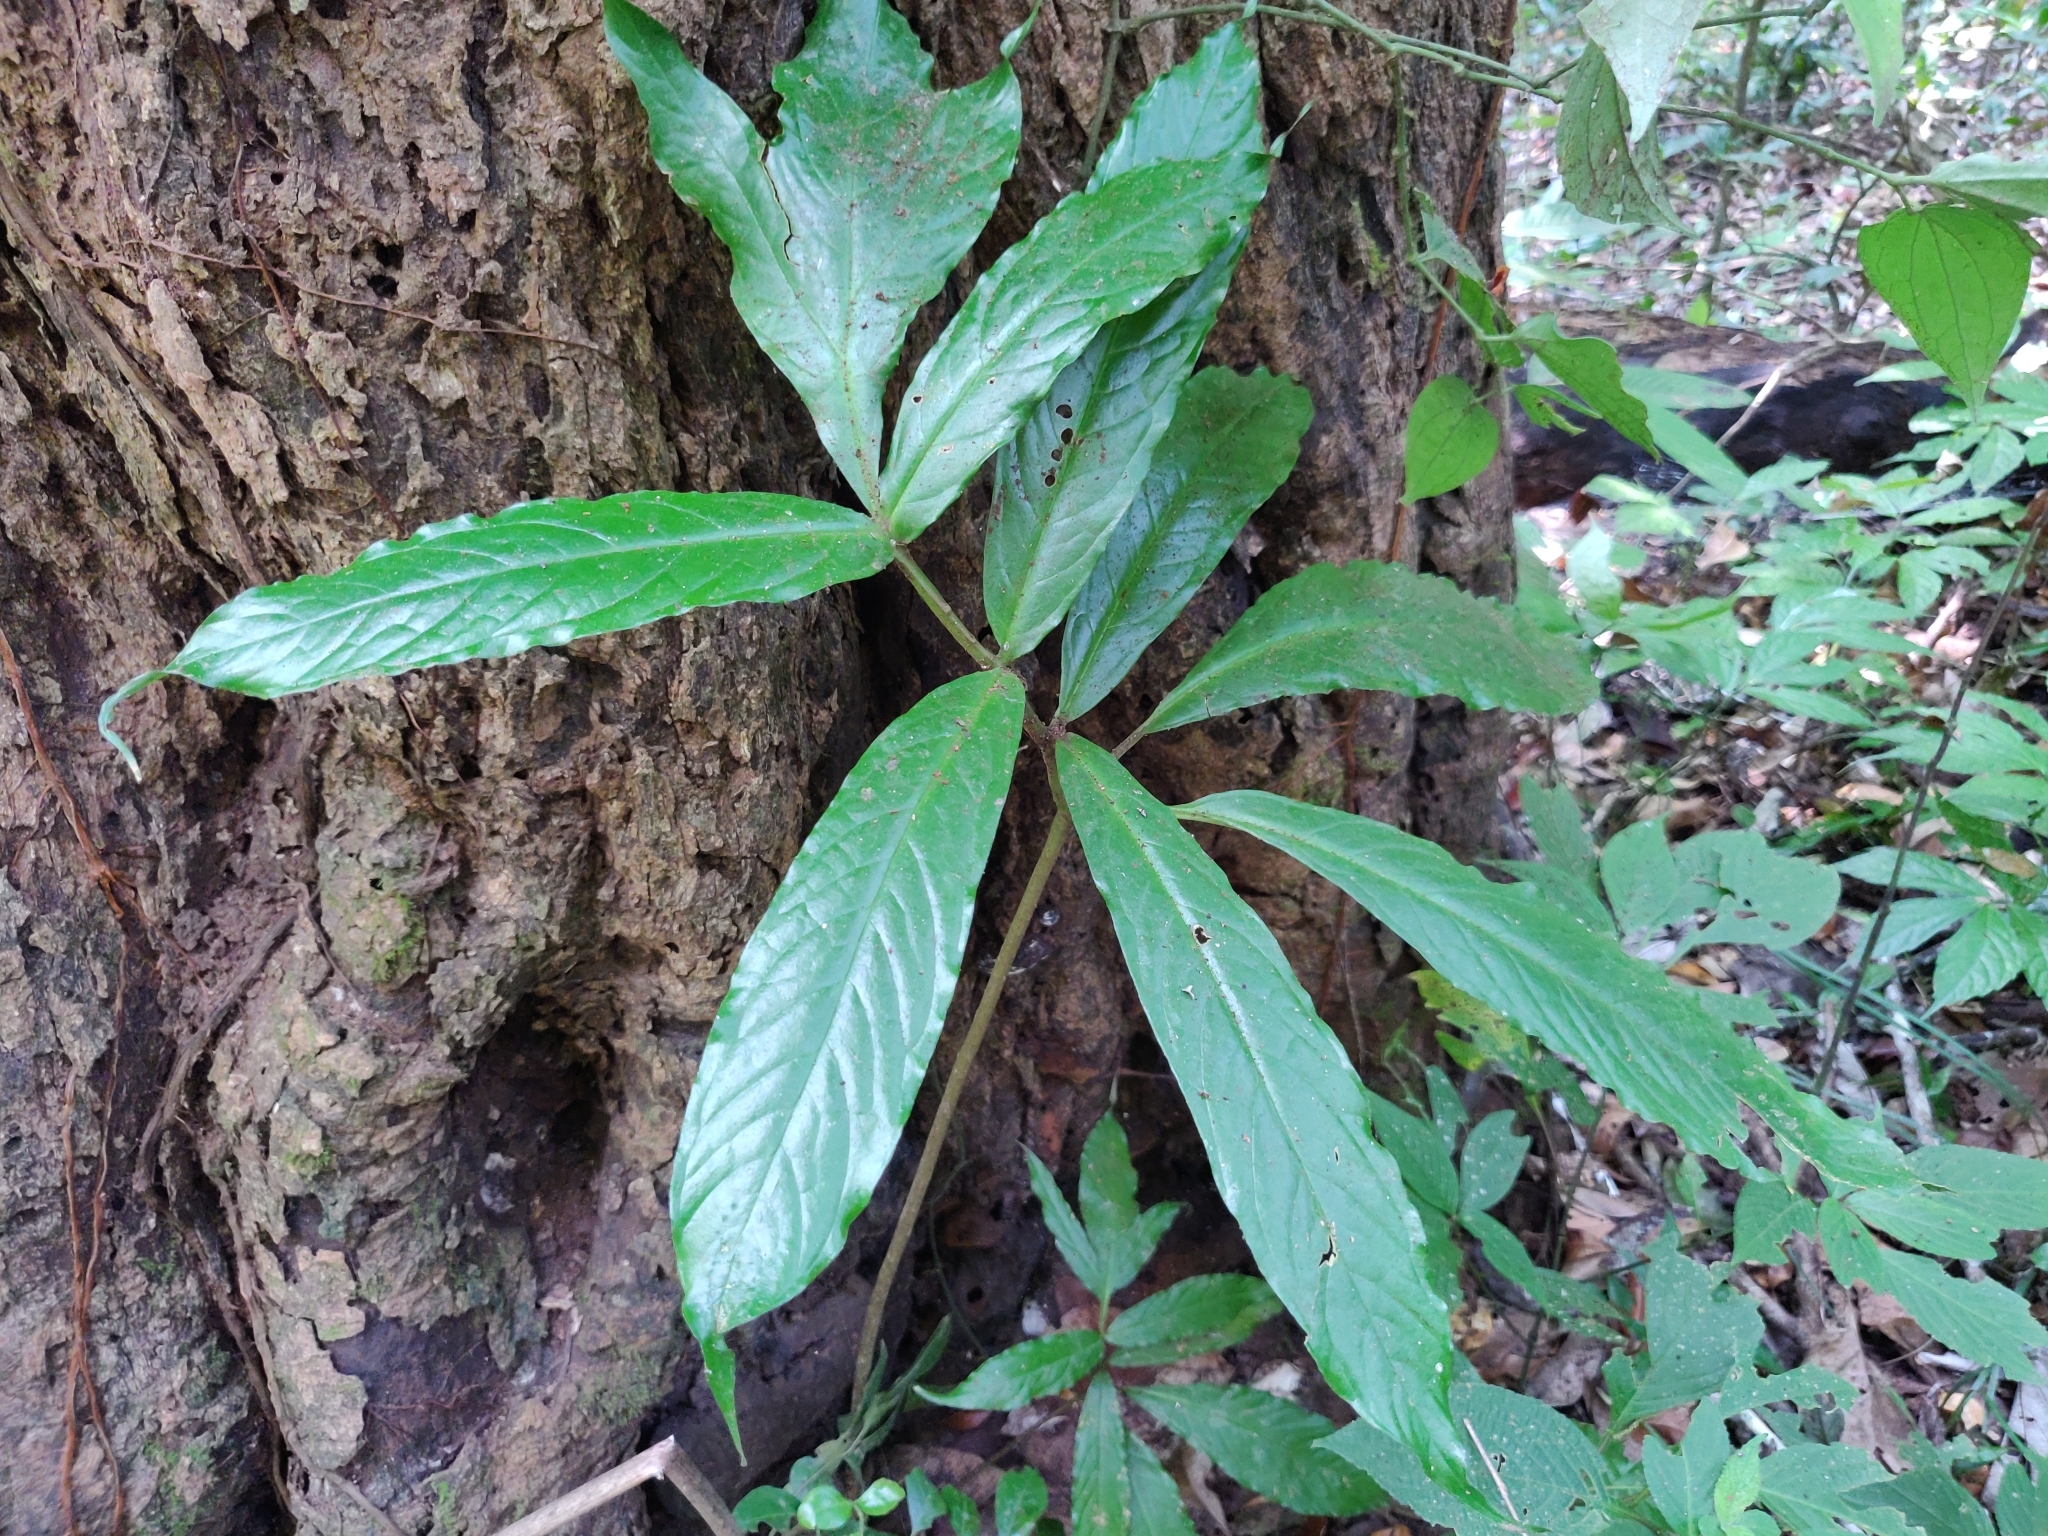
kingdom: Plantae
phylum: Tracheophyta
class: Liliopsida
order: Alismatales
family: Araceae
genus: Anaphyllum
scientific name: Anaphyllum wightii
